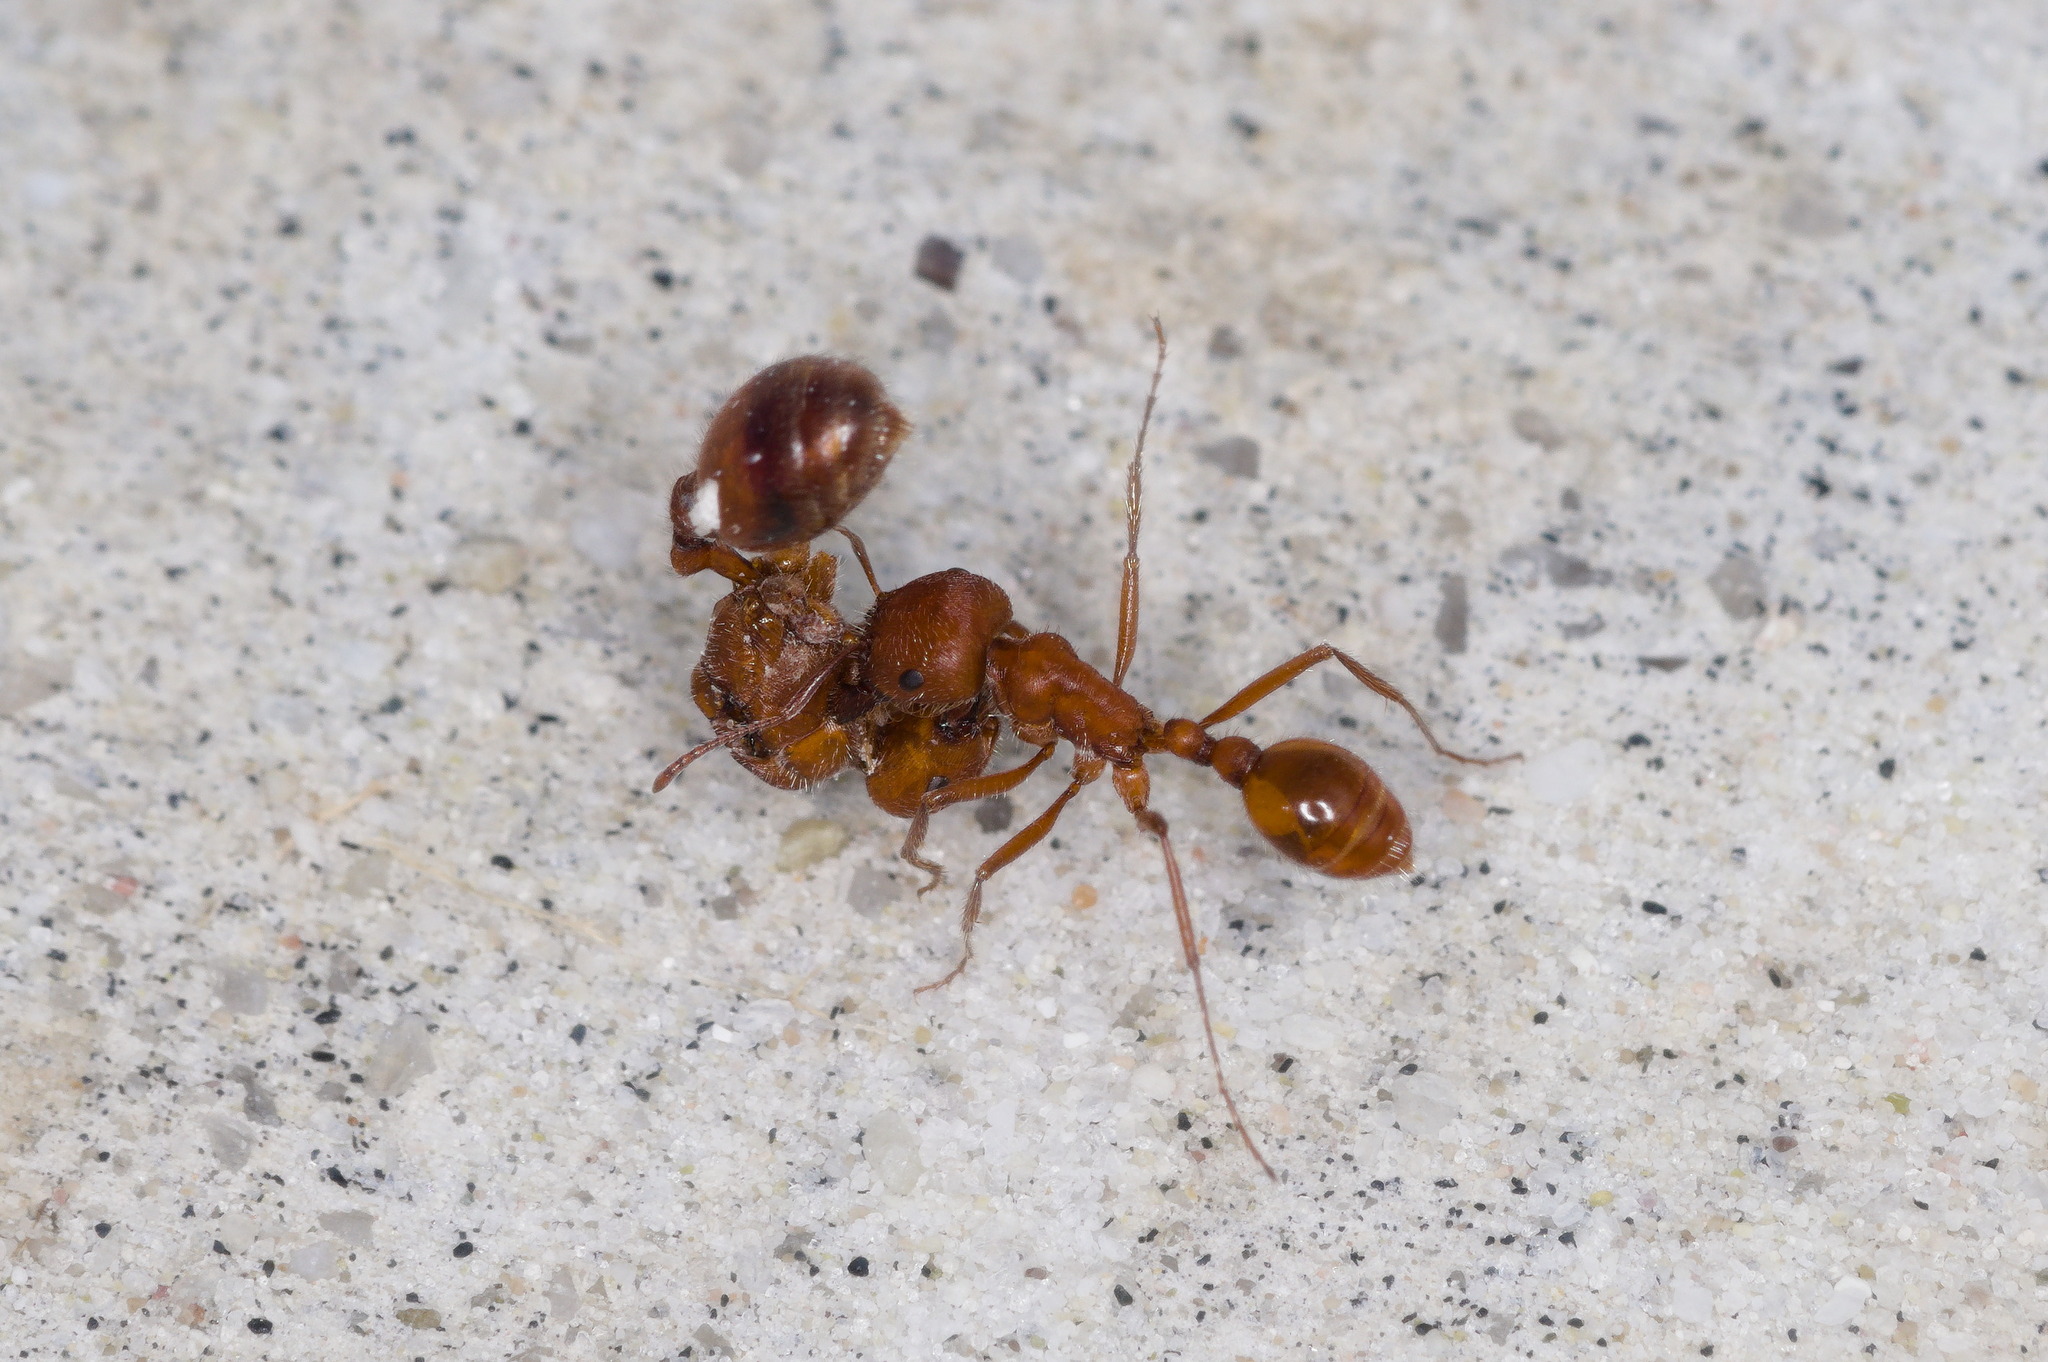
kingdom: Animalia
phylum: Arthropoda
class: Insecta
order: Hymenoptera
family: Formicidae
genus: Pogonomyrmex
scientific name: Pogonomyrmex maricopa
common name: Maricopa harvester ant
